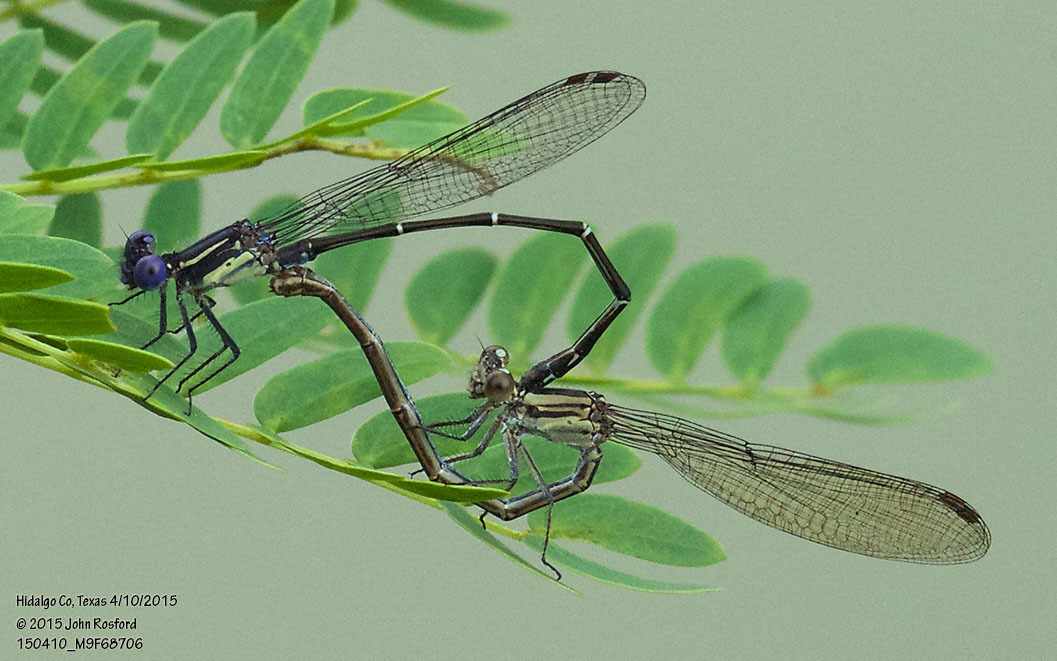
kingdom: Animalia
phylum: Arthropoda
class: Insecta
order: Odonata
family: Coenagrionidae
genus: Argia
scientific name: Argia translata
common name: Dusky dancer
